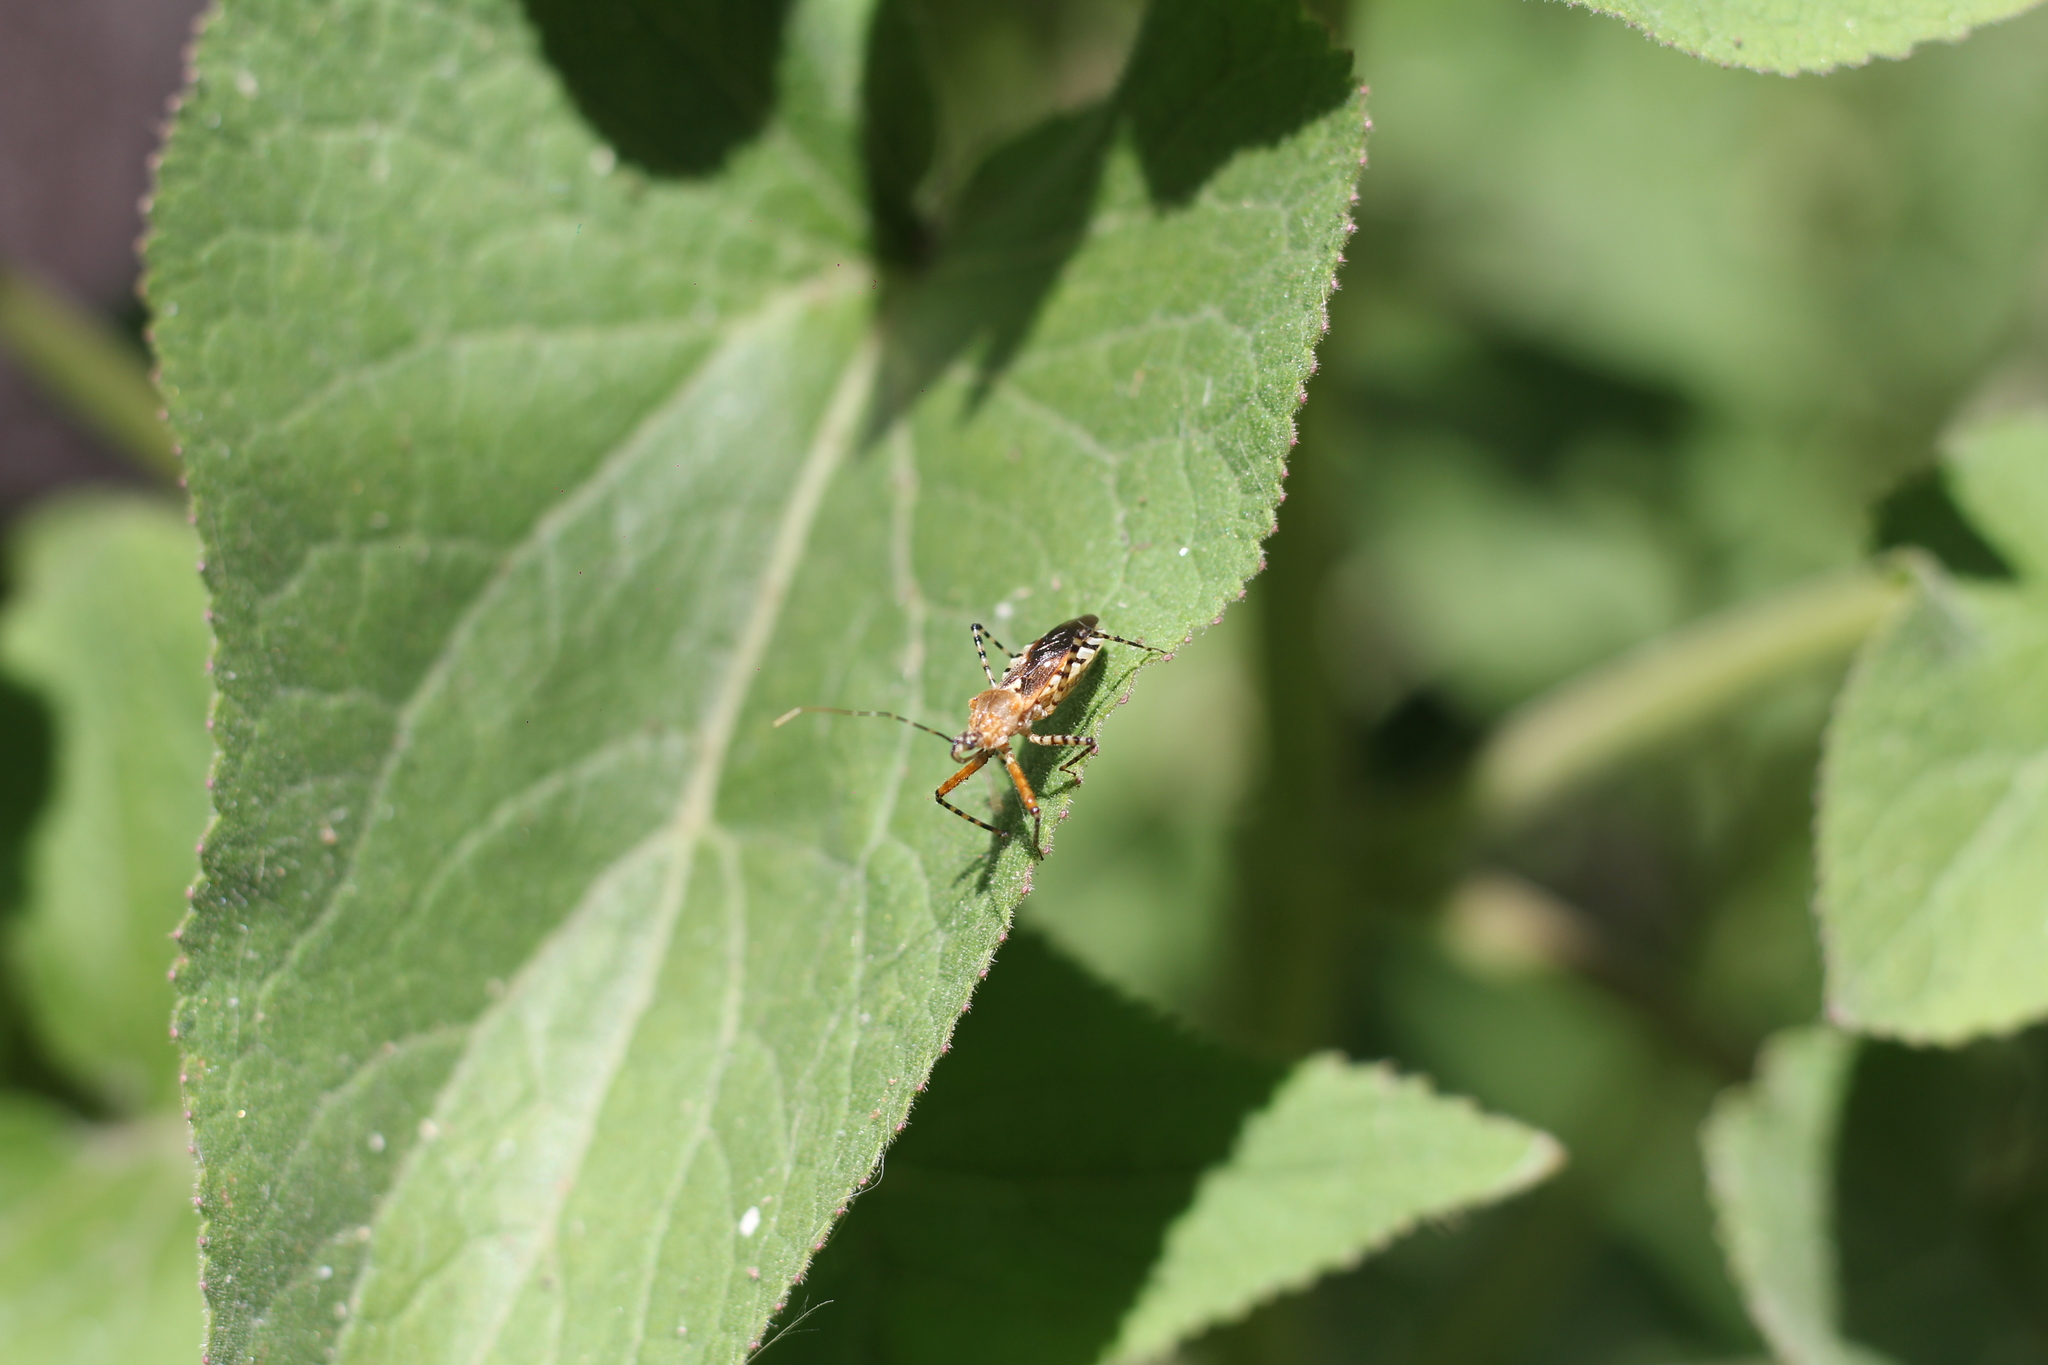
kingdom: Animalia
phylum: Arthropoda
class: Insecta
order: Hemiptera
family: Reduviidae
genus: Cosmoclopius
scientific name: Cosmoclopius nigroannulatus
